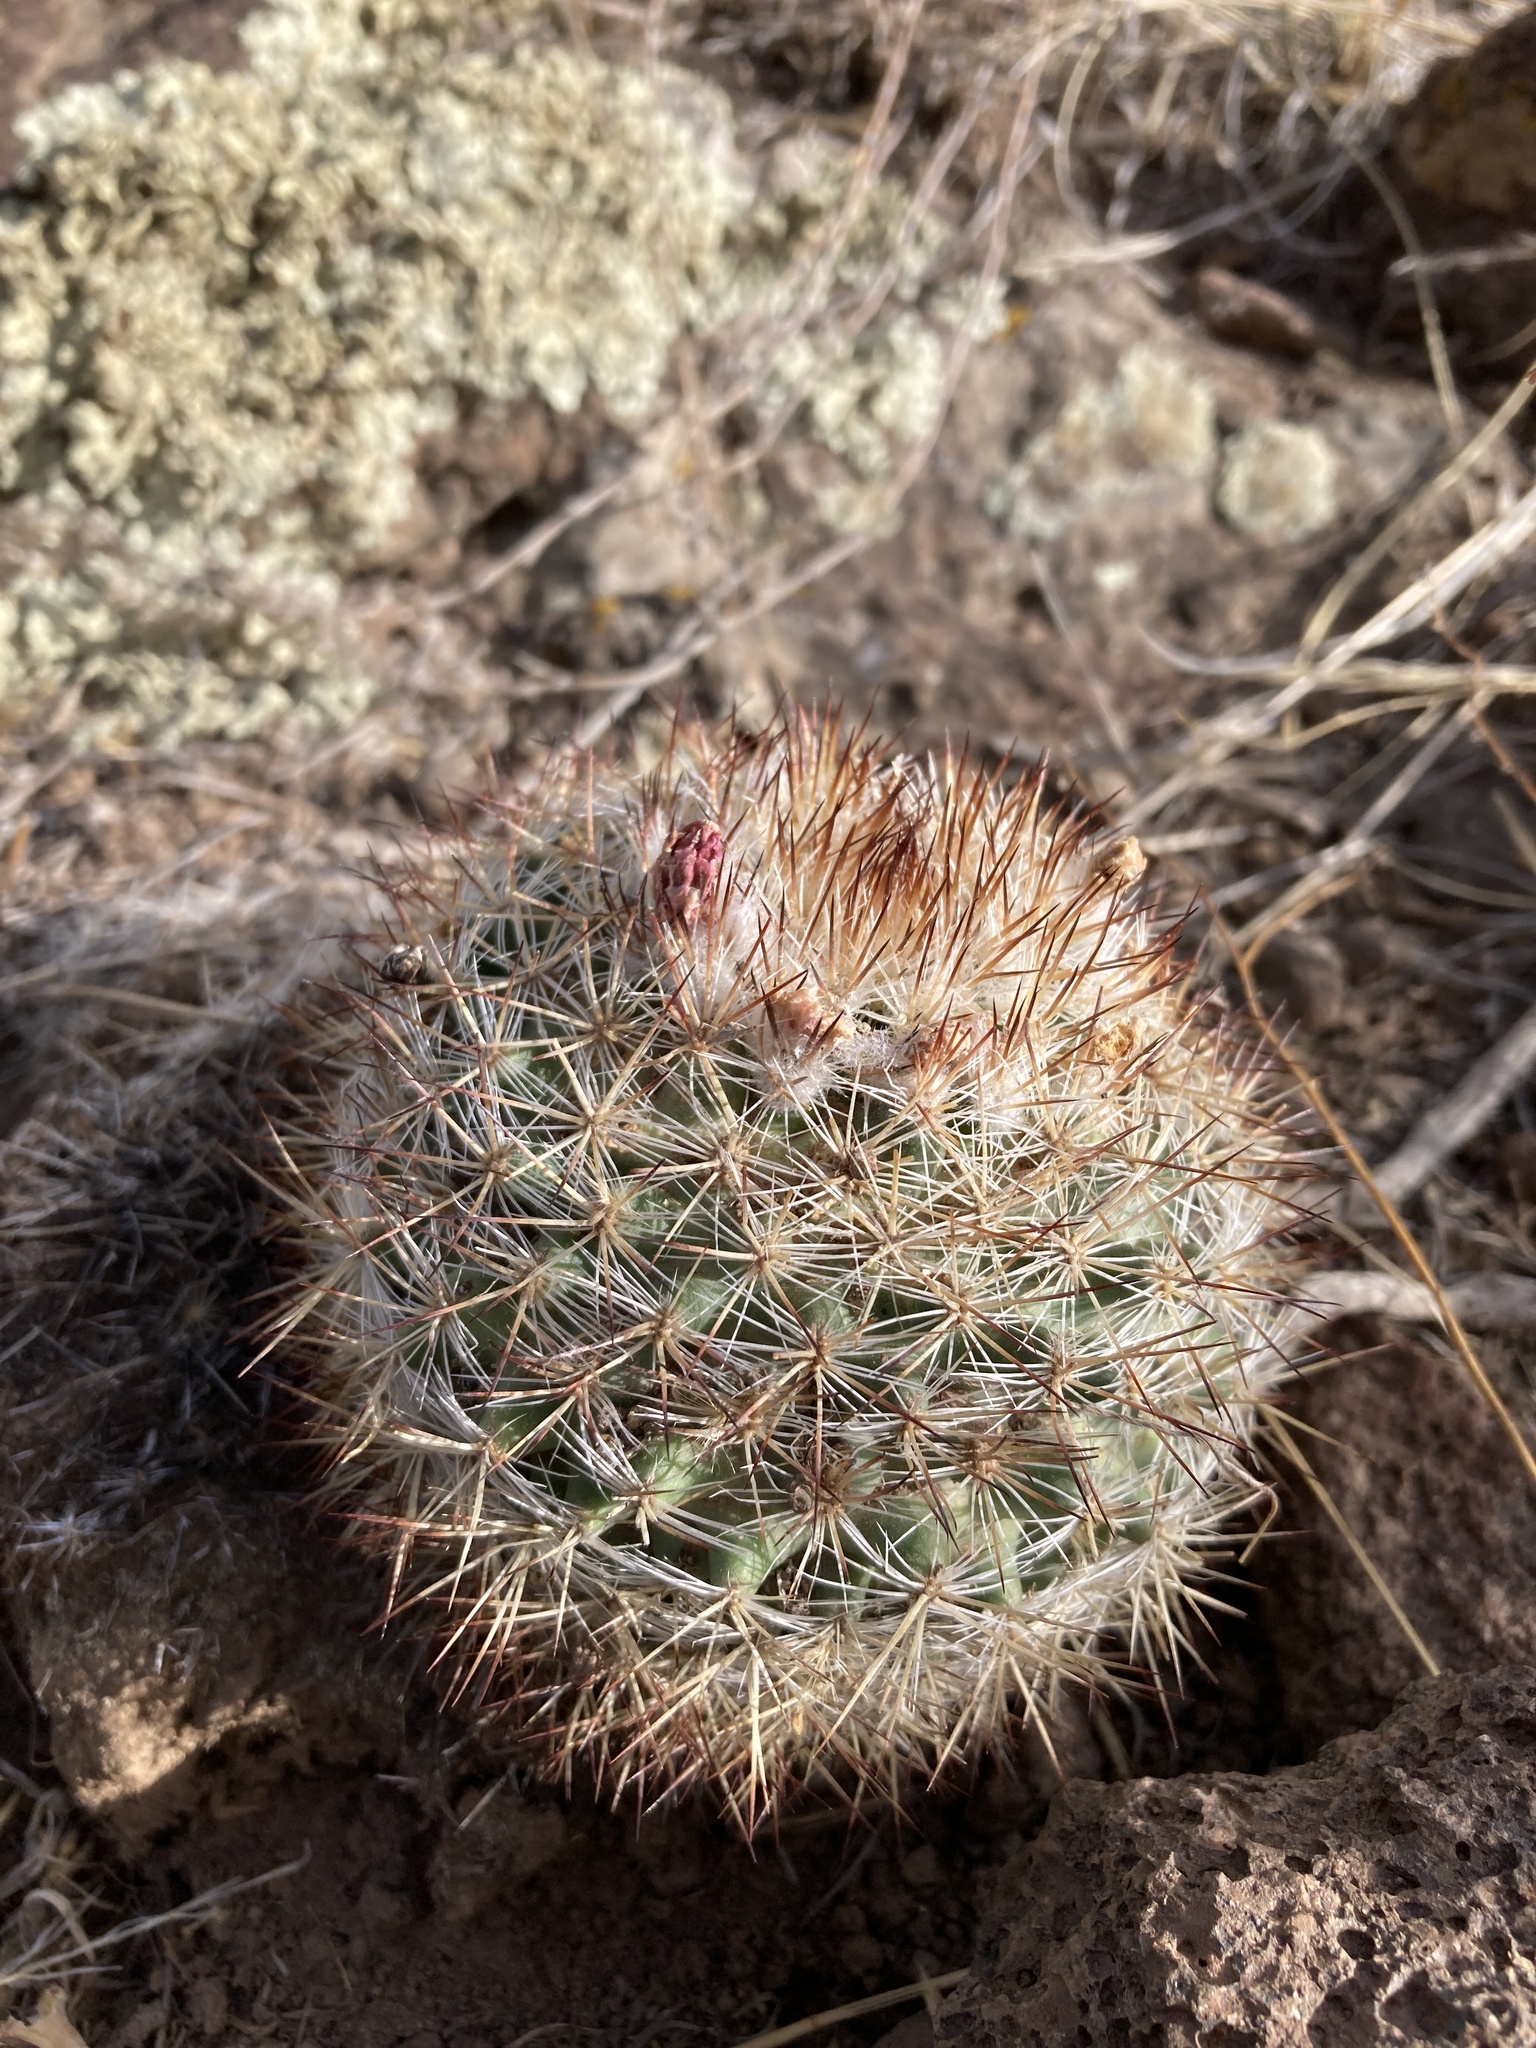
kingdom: Plantae
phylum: Tracheophyta
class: Magnoliopsida
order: Caryophyllales
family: Cactaceae
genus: Pediocactus
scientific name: Pediocactus simpsonii
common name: Simpson's hedgehog cactus
